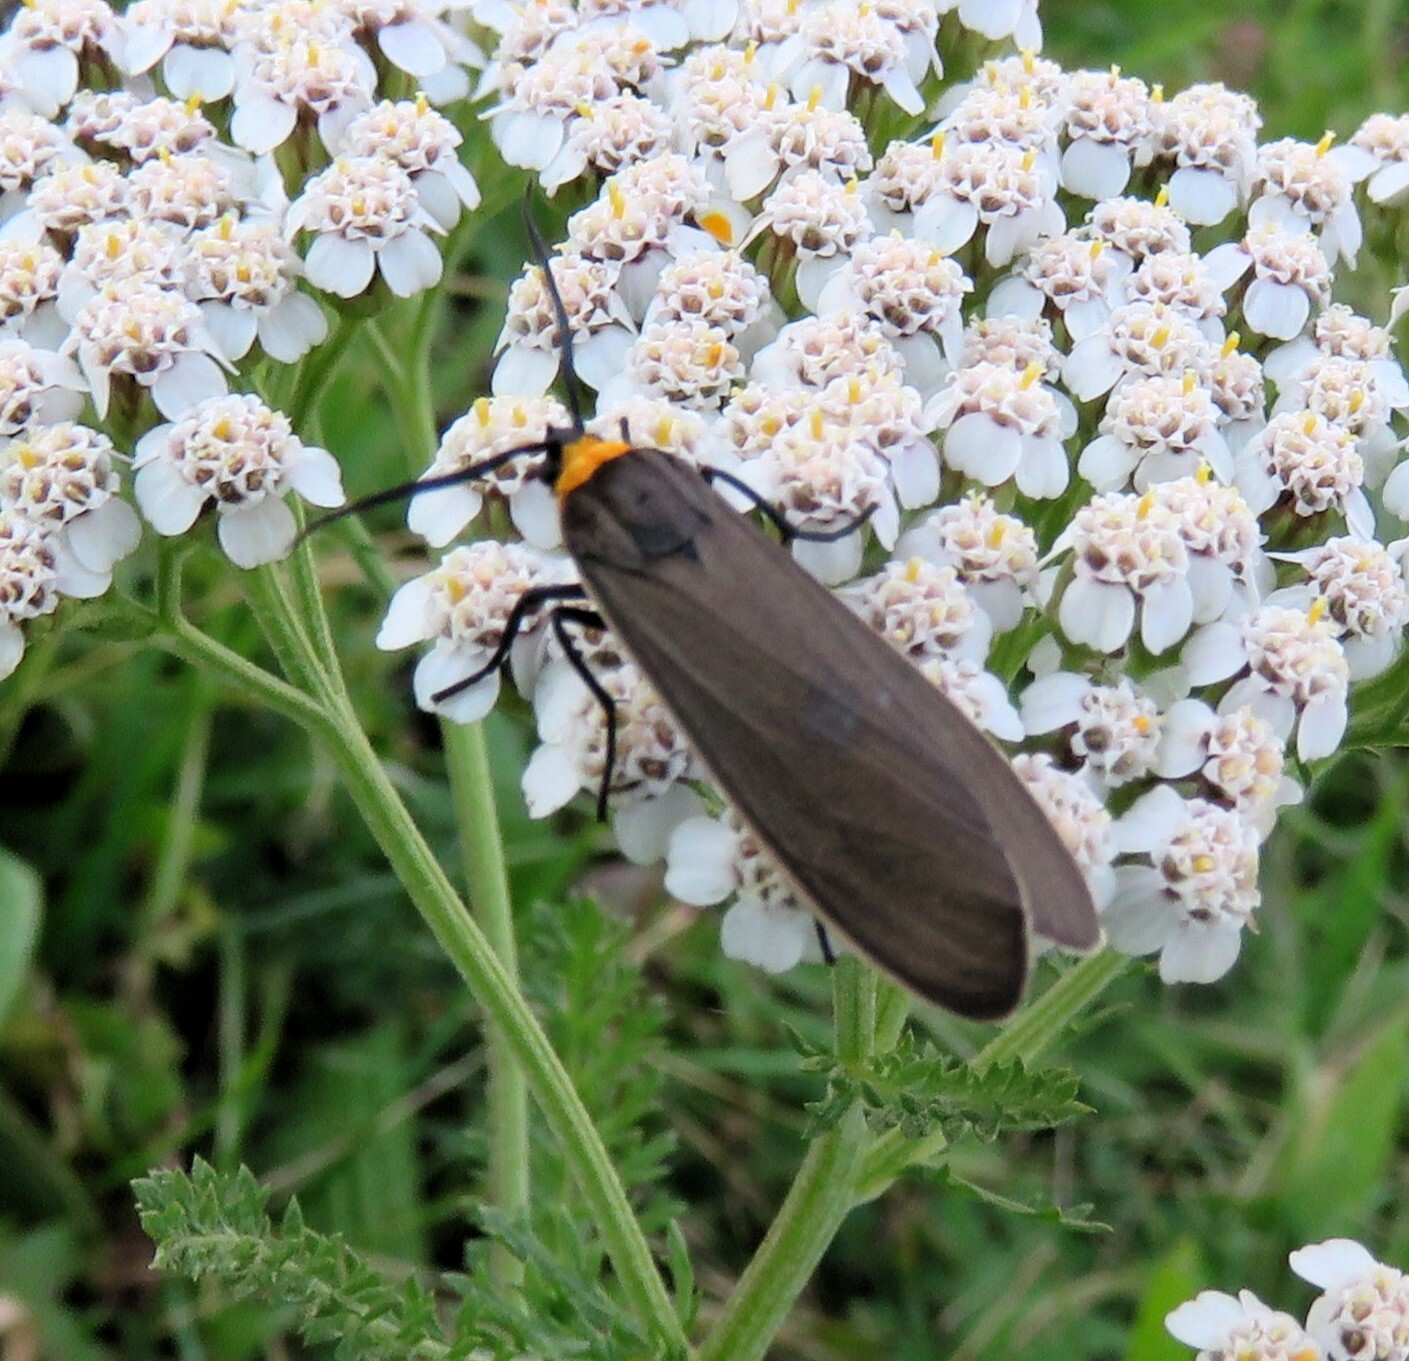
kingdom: Animalia
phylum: Arthropoda
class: Insecta
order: Lepidoptera
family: Erebidae
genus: Cisseps
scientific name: Cisseps fulvicollis
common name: Yellow-collared scape moth
